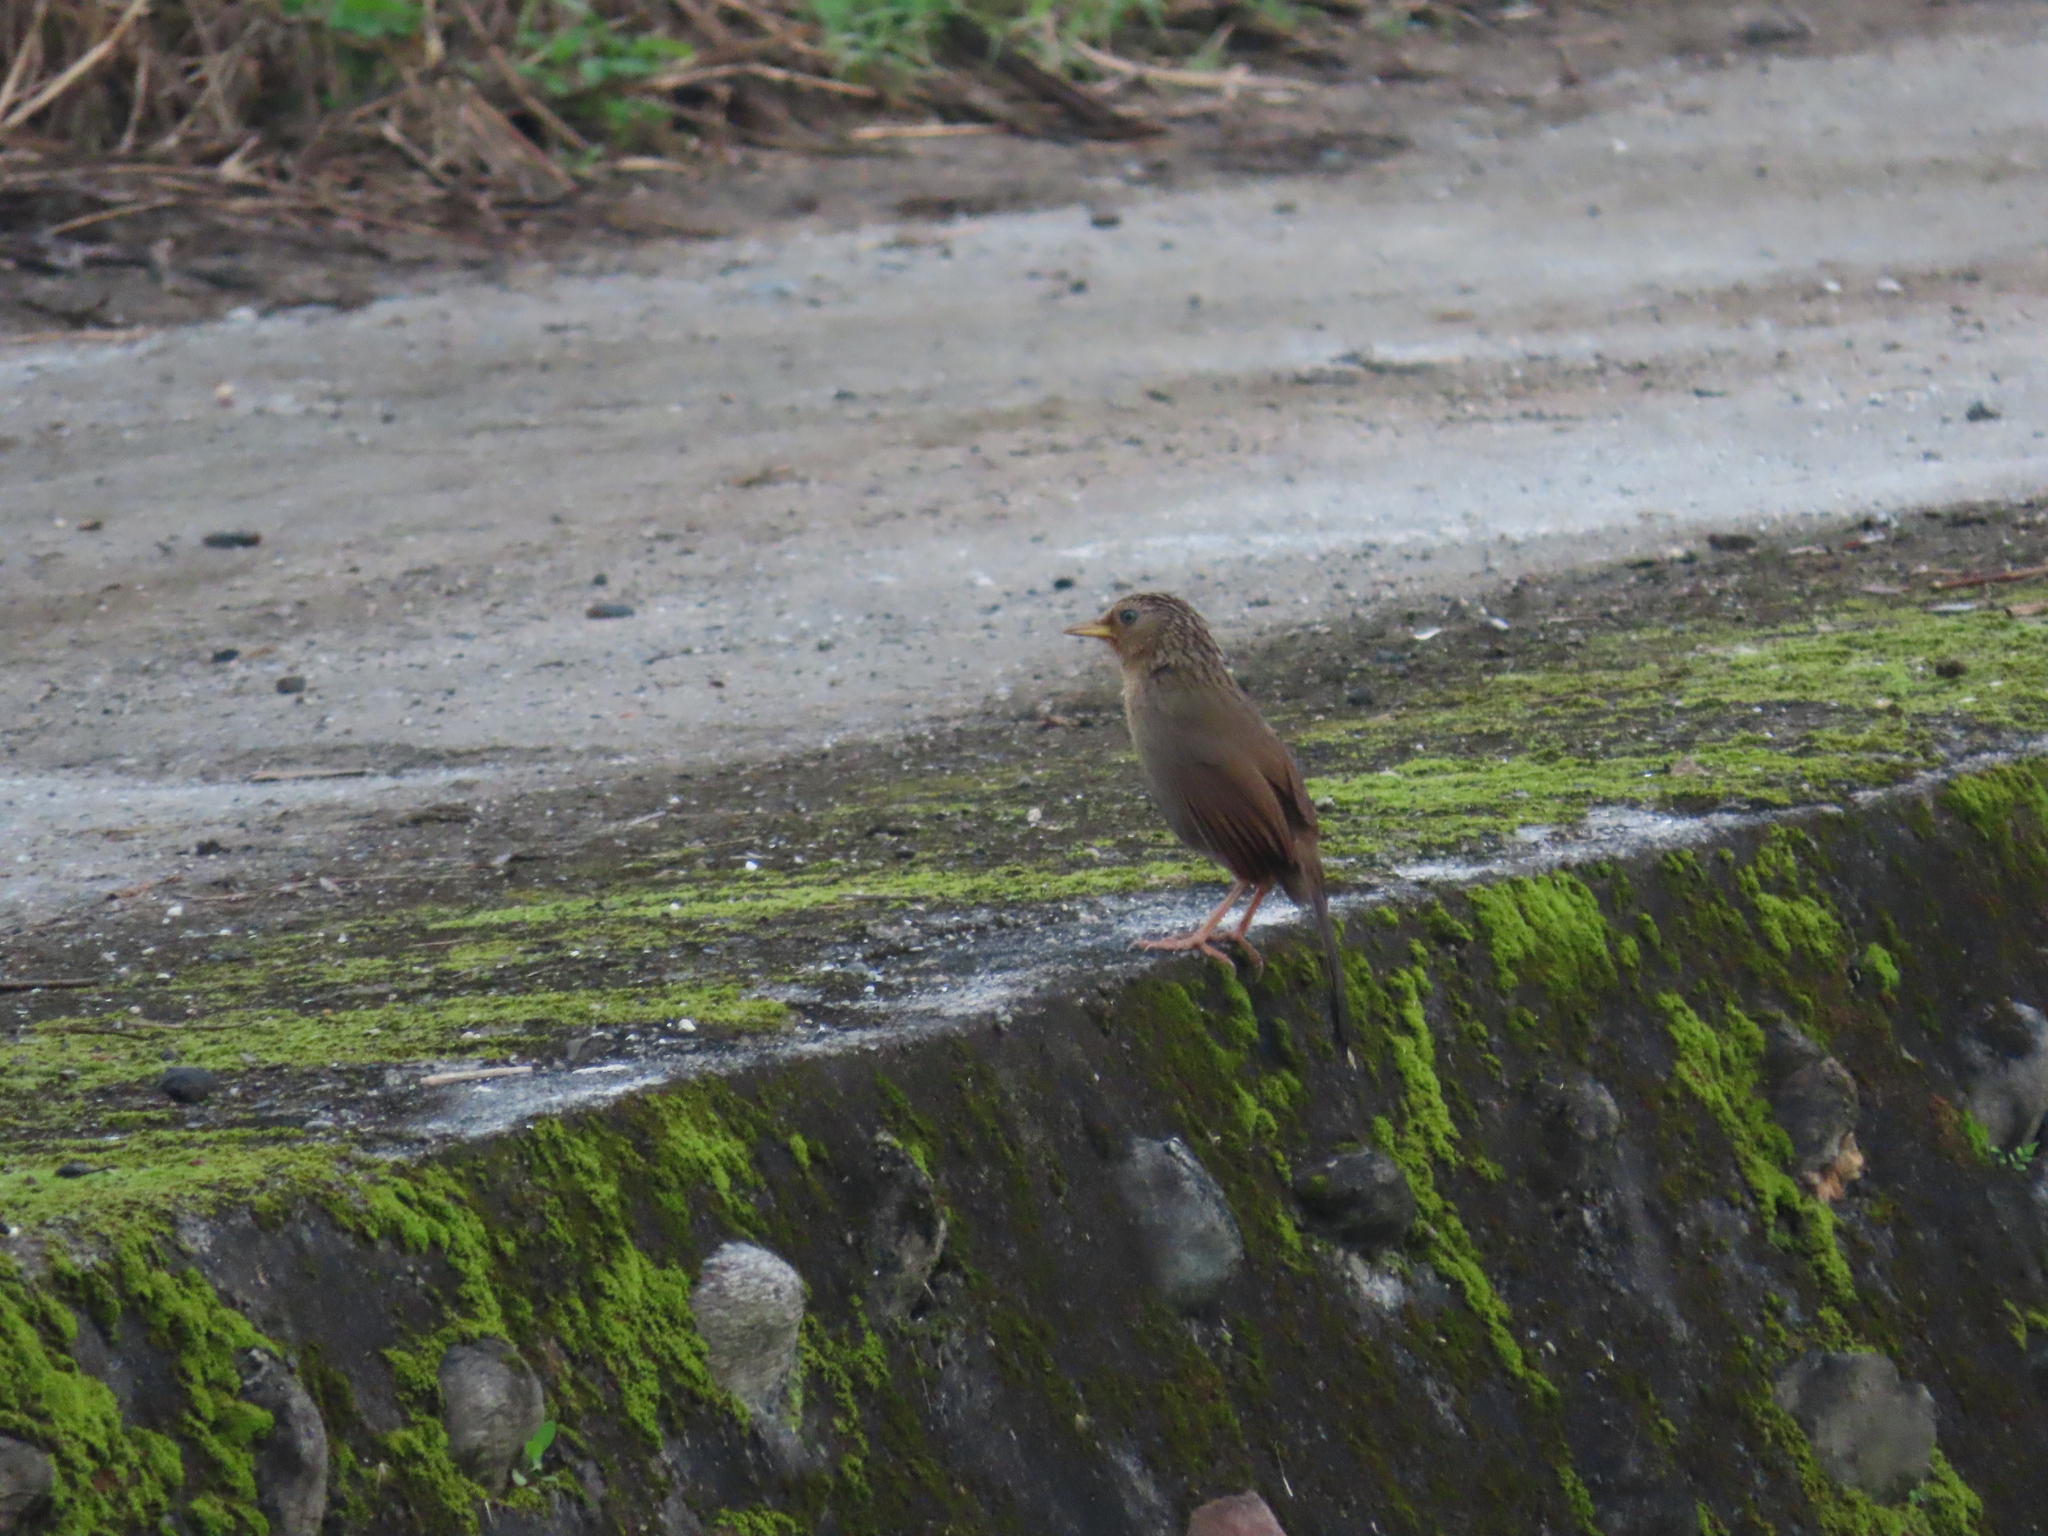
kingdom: Animalia
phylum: Chordata
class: Aves
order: Passeriformes
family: Leiothrichidae
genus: Garrulax
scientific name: Garrulax taewanus
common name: Taiwan hwamei
